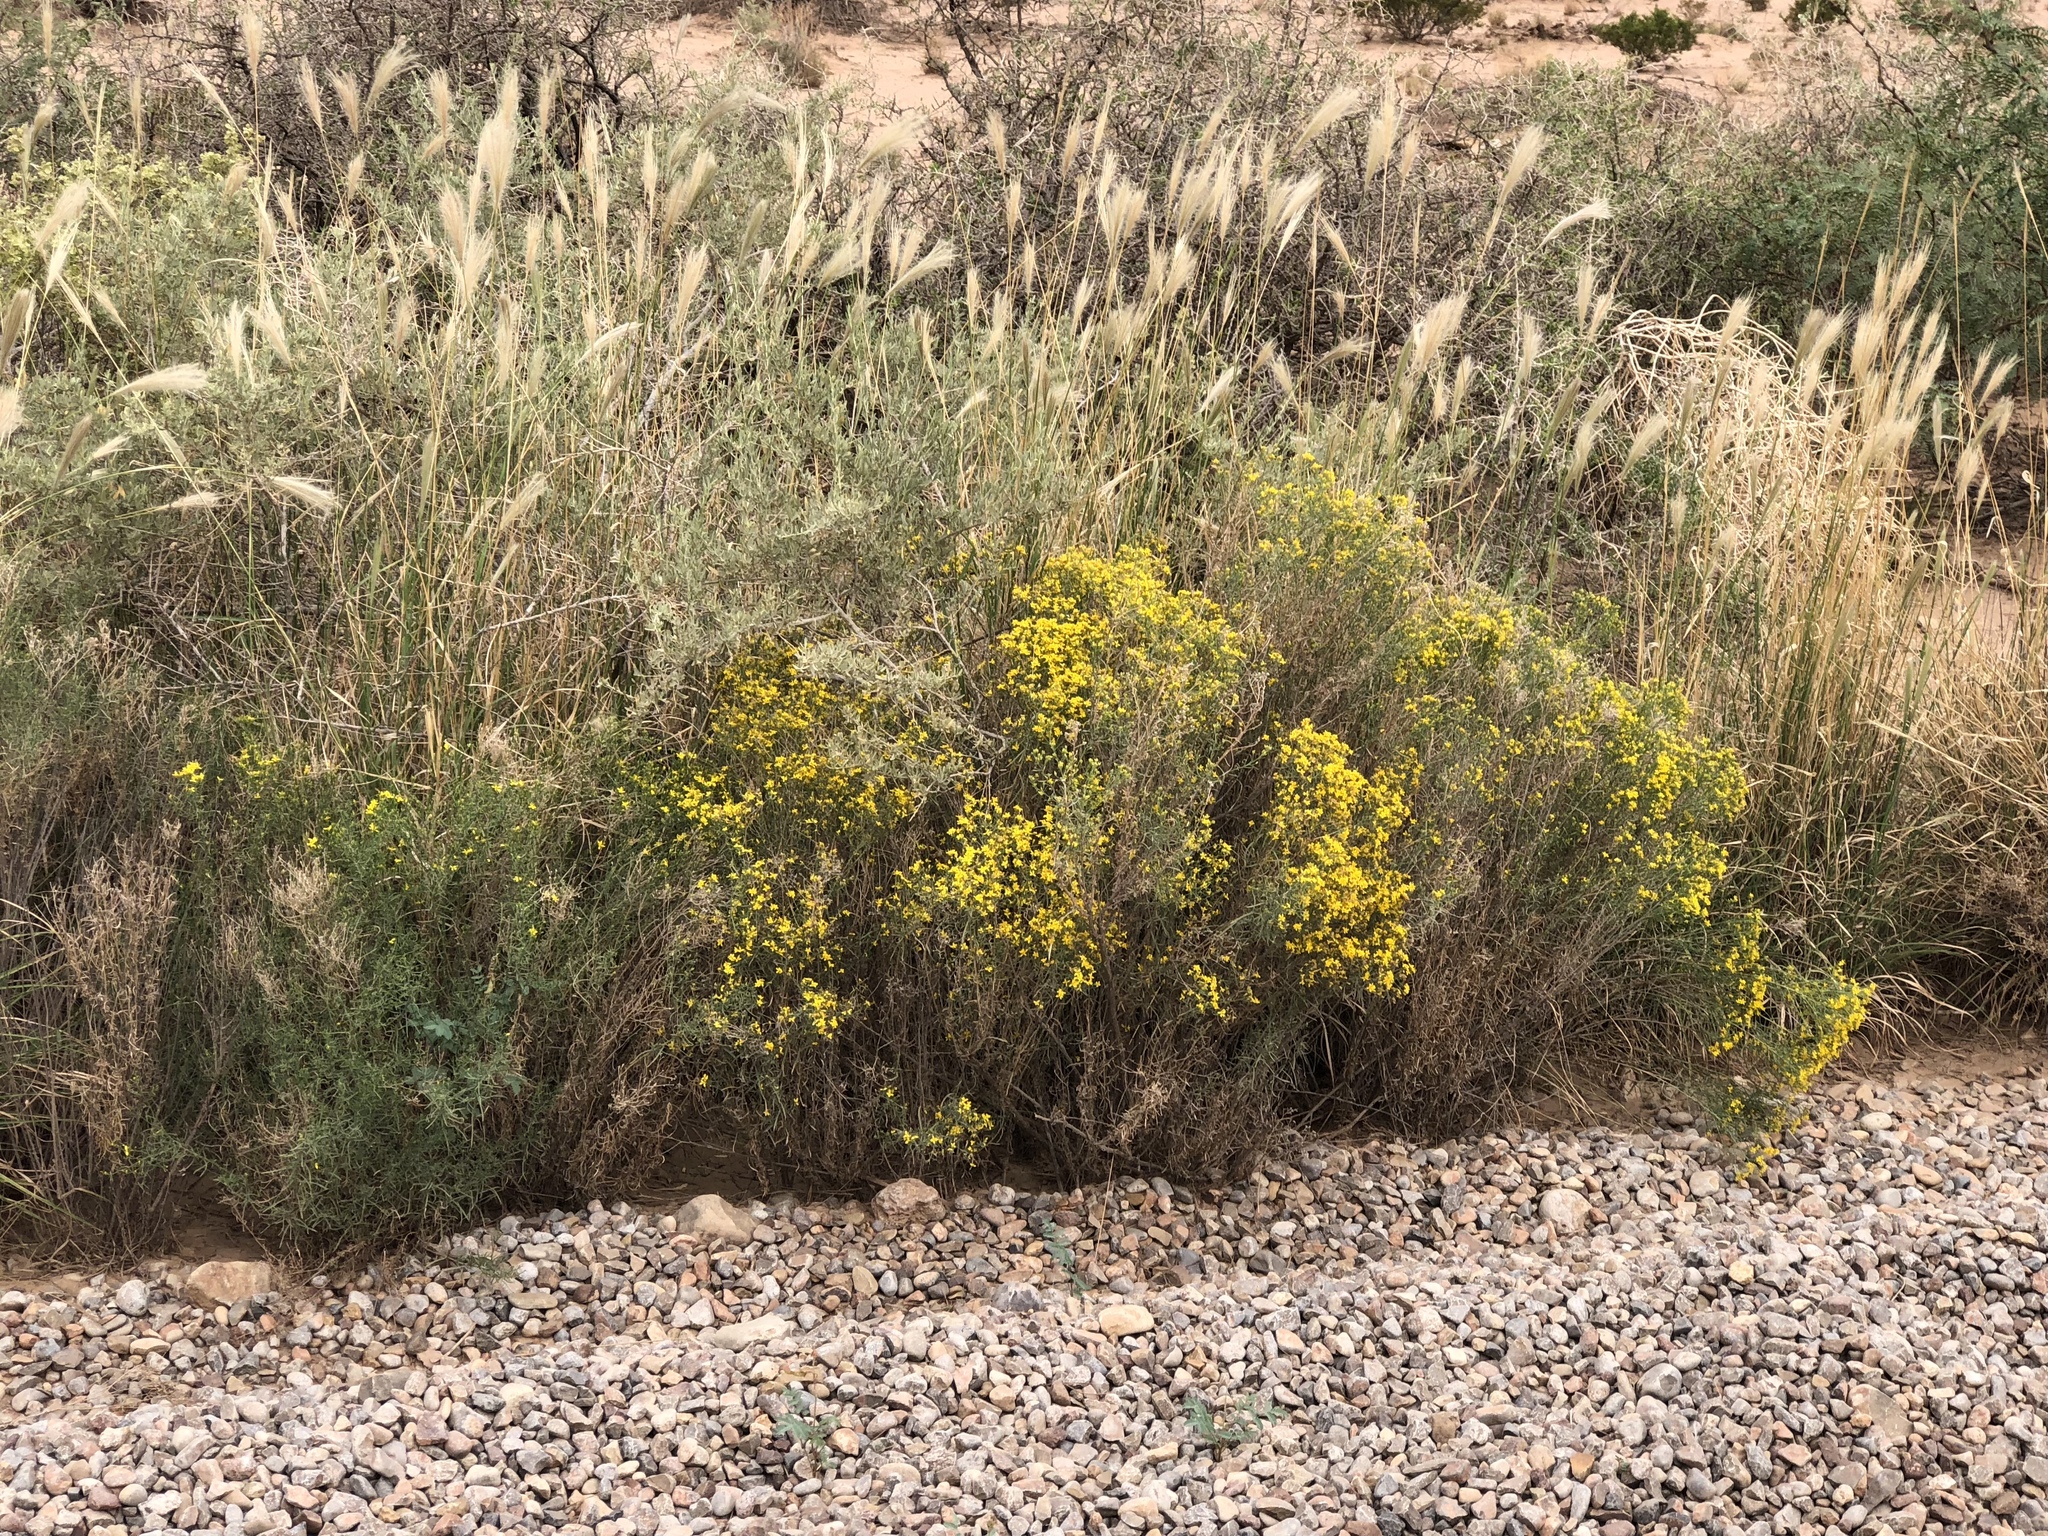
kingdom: Plantae
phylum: Tracheophyta
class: Magnoliopsida
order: Asterales
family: Asteraceae
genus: Gutierrezia
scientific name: Gutierrezia sarothrae
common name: Broom snakeweed
